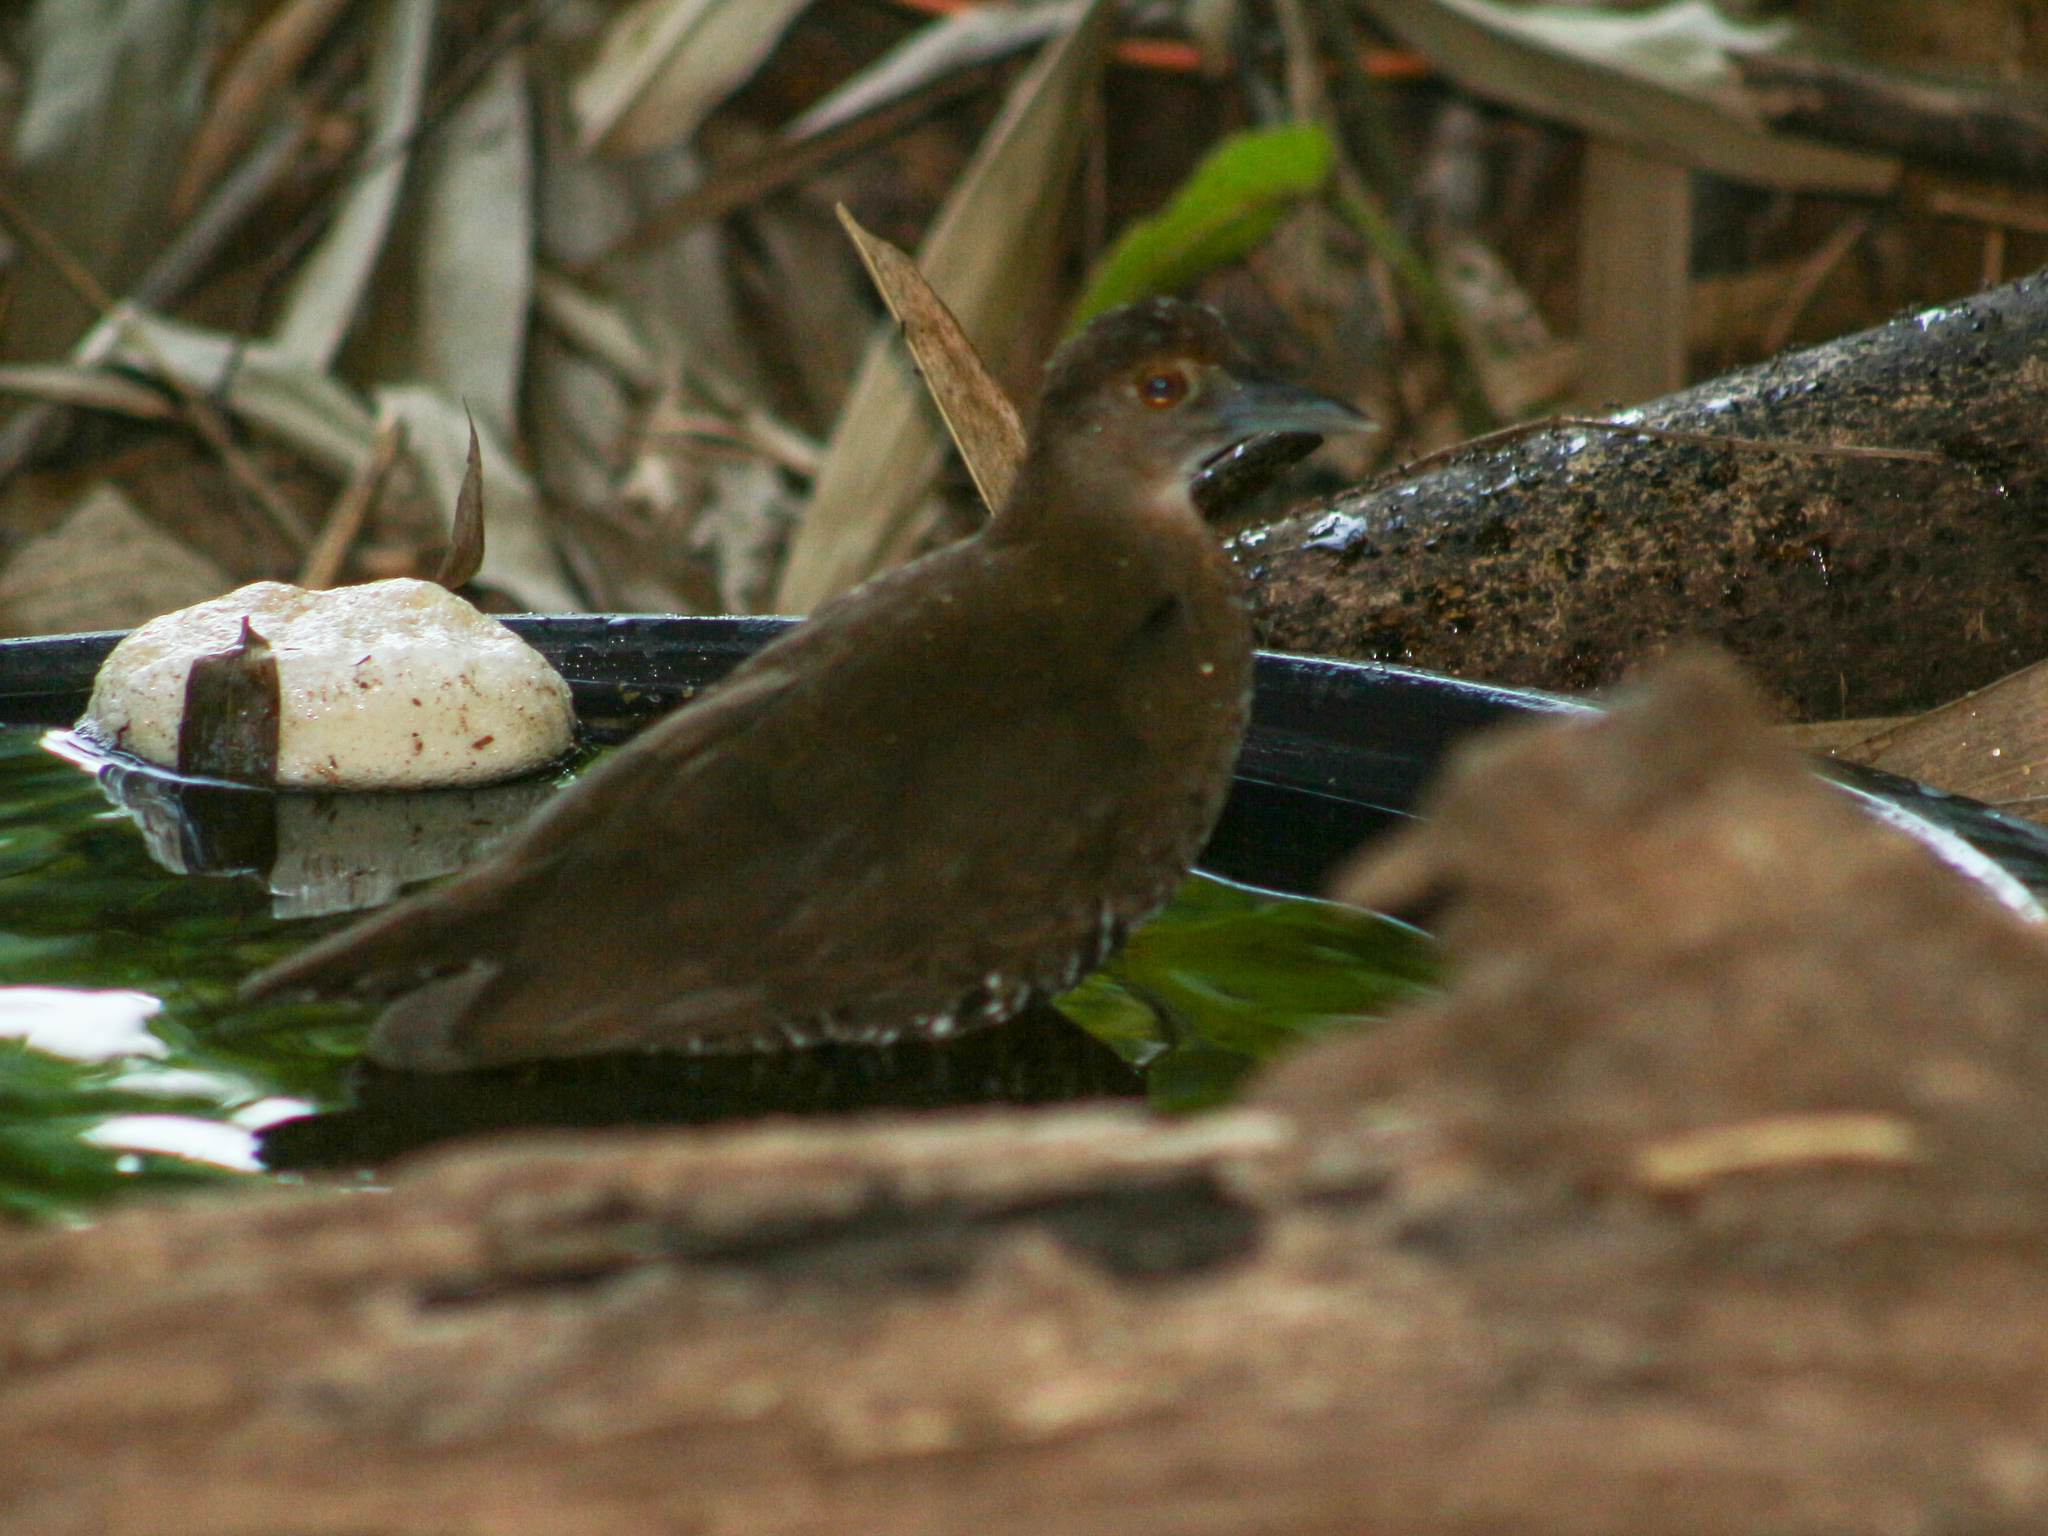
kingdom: Animalia
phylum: Chordata
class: Aves
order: Gruiformes
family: Rallidae
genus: Rallina
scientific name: Rallina eurizonoides
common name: Slaty-legged crake
